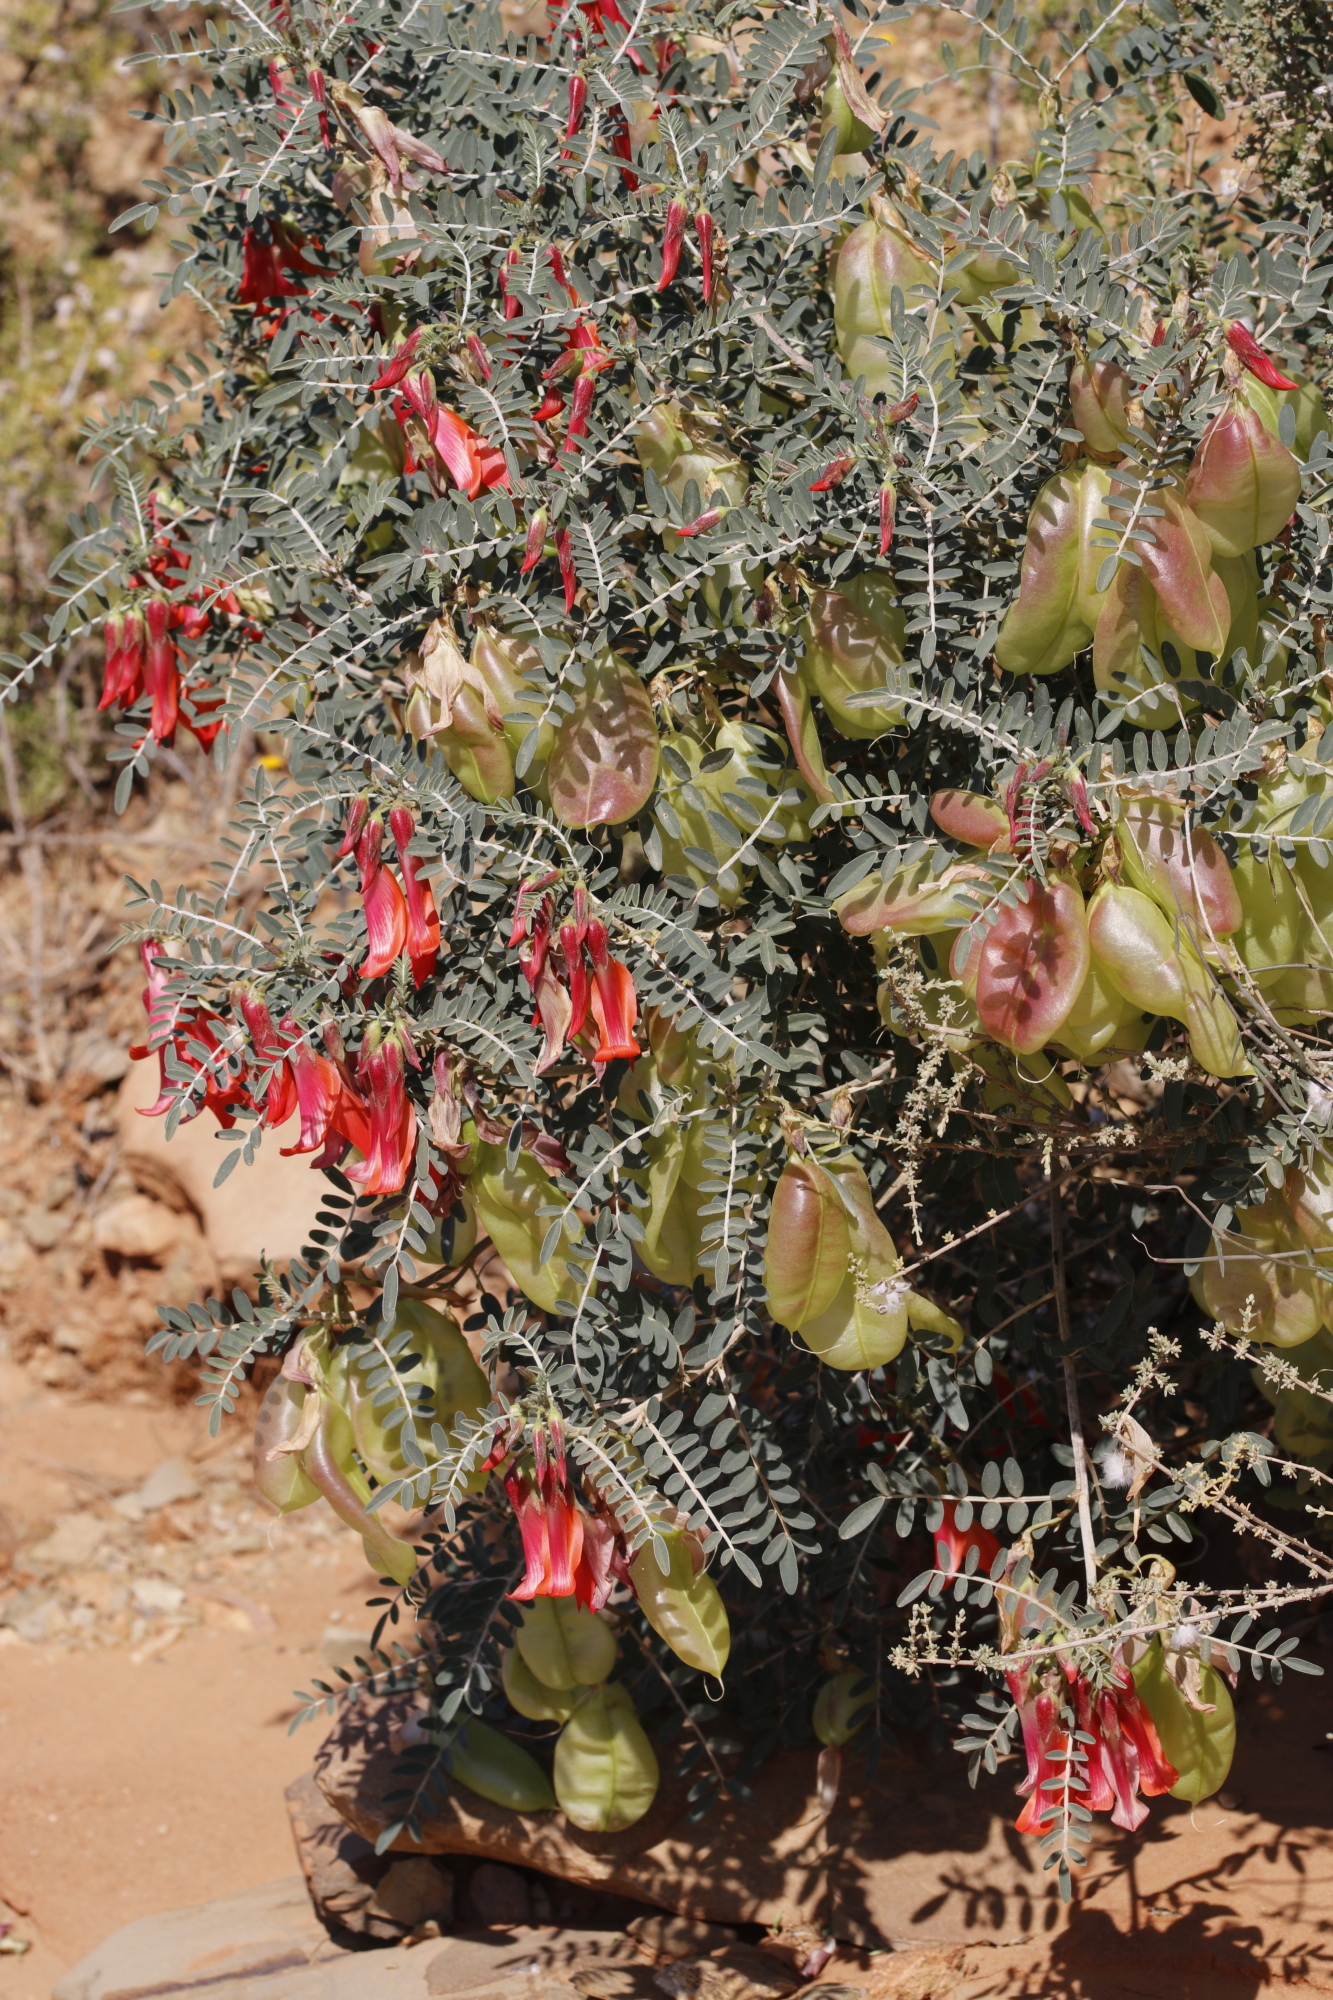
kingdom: Plantae
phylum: Tracheophyta
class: Magnoliopsida
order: Fabales
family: Fabaceae
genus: Lessertia
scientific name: Lessertia frutescens
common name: Balloon-pea
